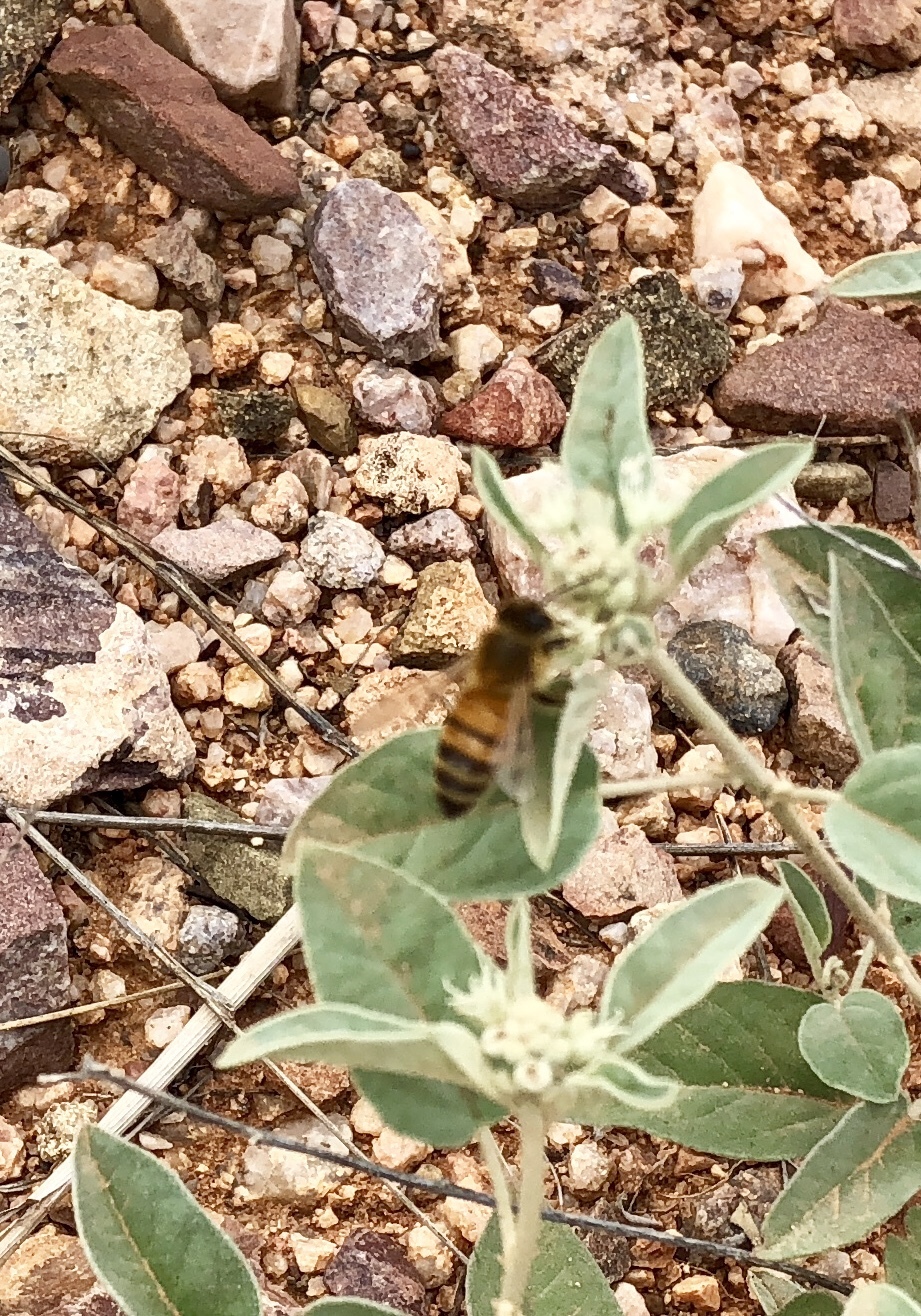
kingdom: Animalia
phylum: Arthropoda
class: Insecta
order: Hymenoptera
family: Apidae
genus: Apis
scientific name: Apis mellifera
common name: Honey bee
